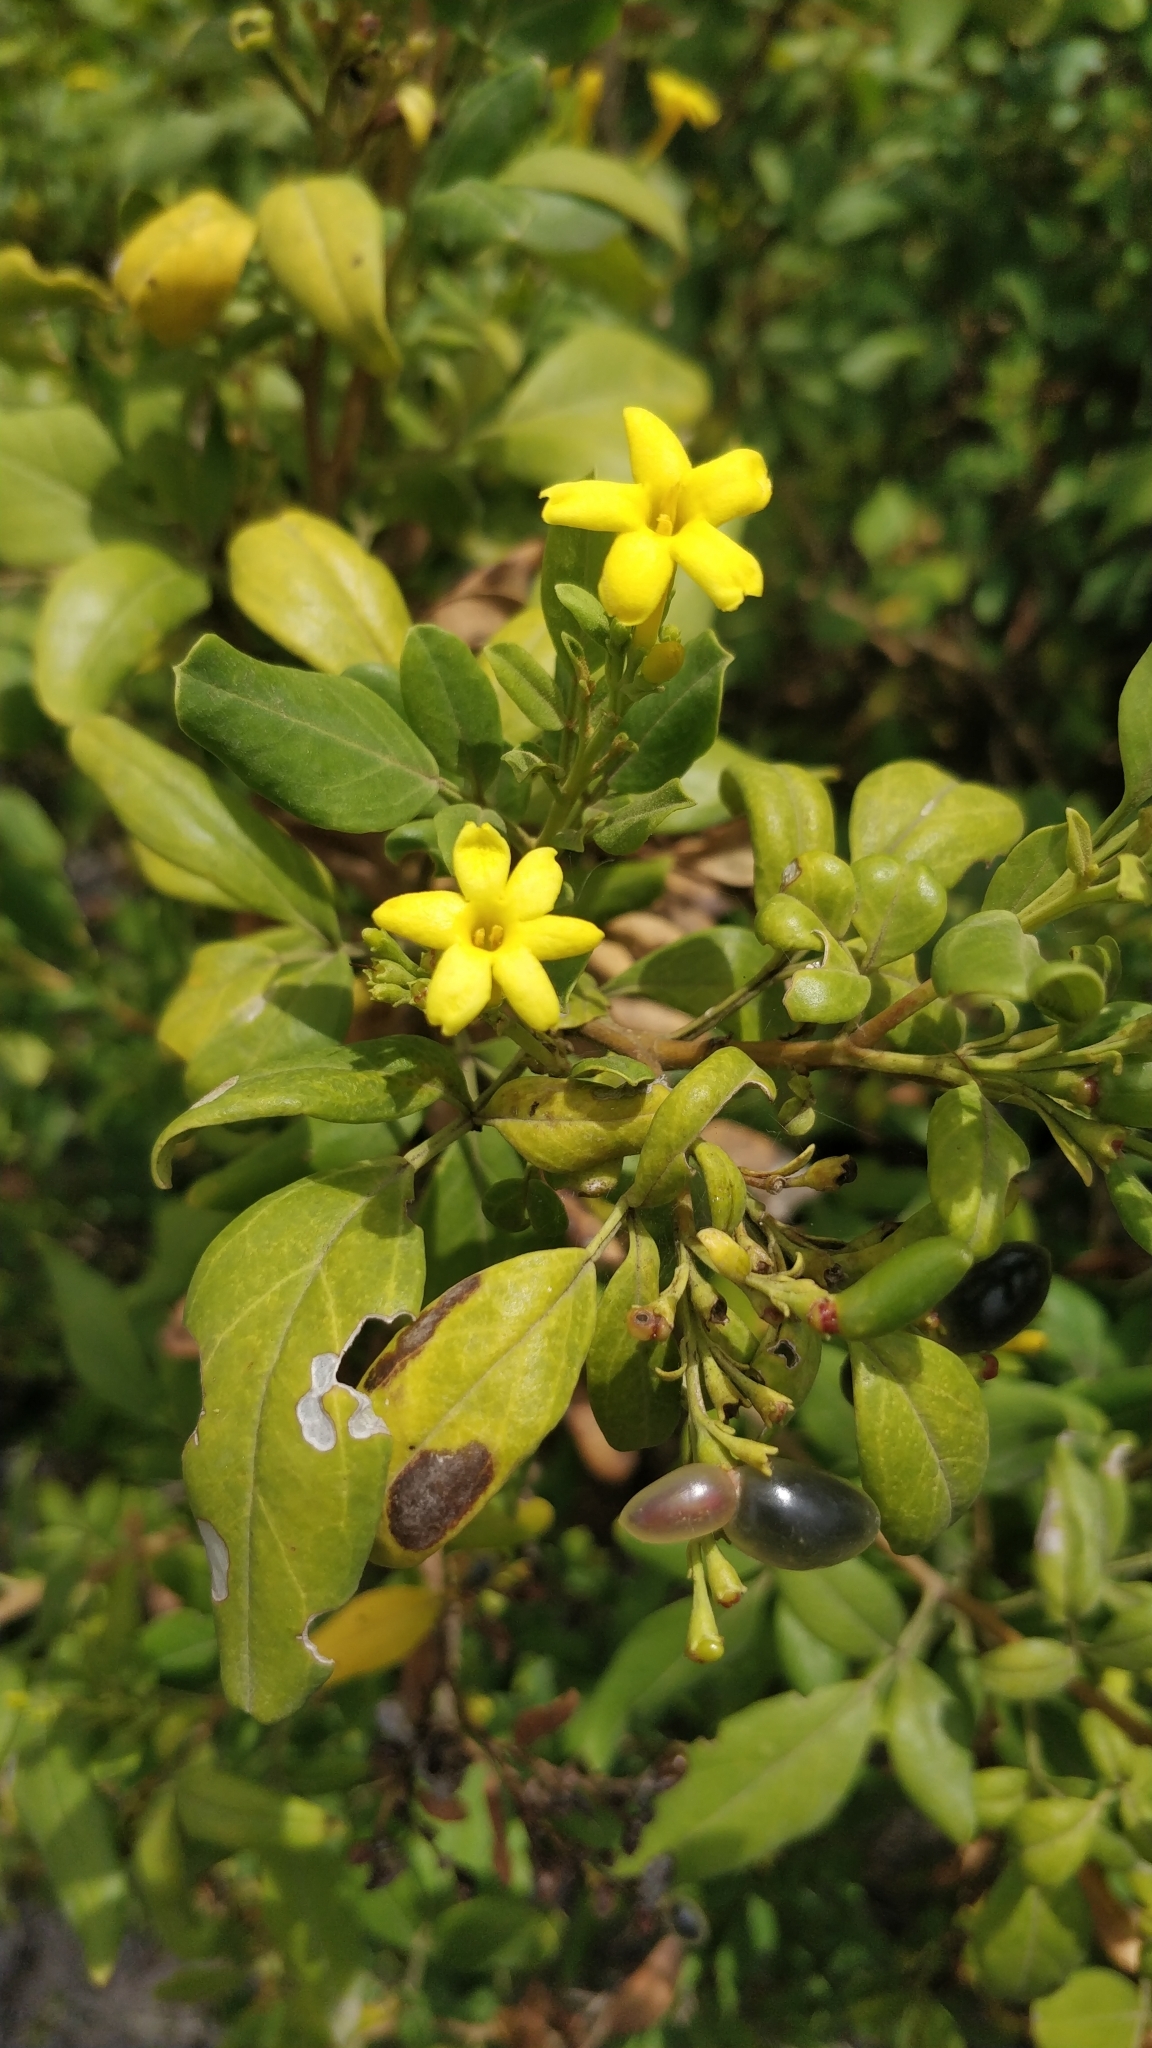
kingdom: Plantae
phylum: Tracheophyta
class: Magnoliopsida
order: Lamiales
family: Oleaceae
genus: Chrysojasminum
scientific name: Chrysojasminum odoratissimum
